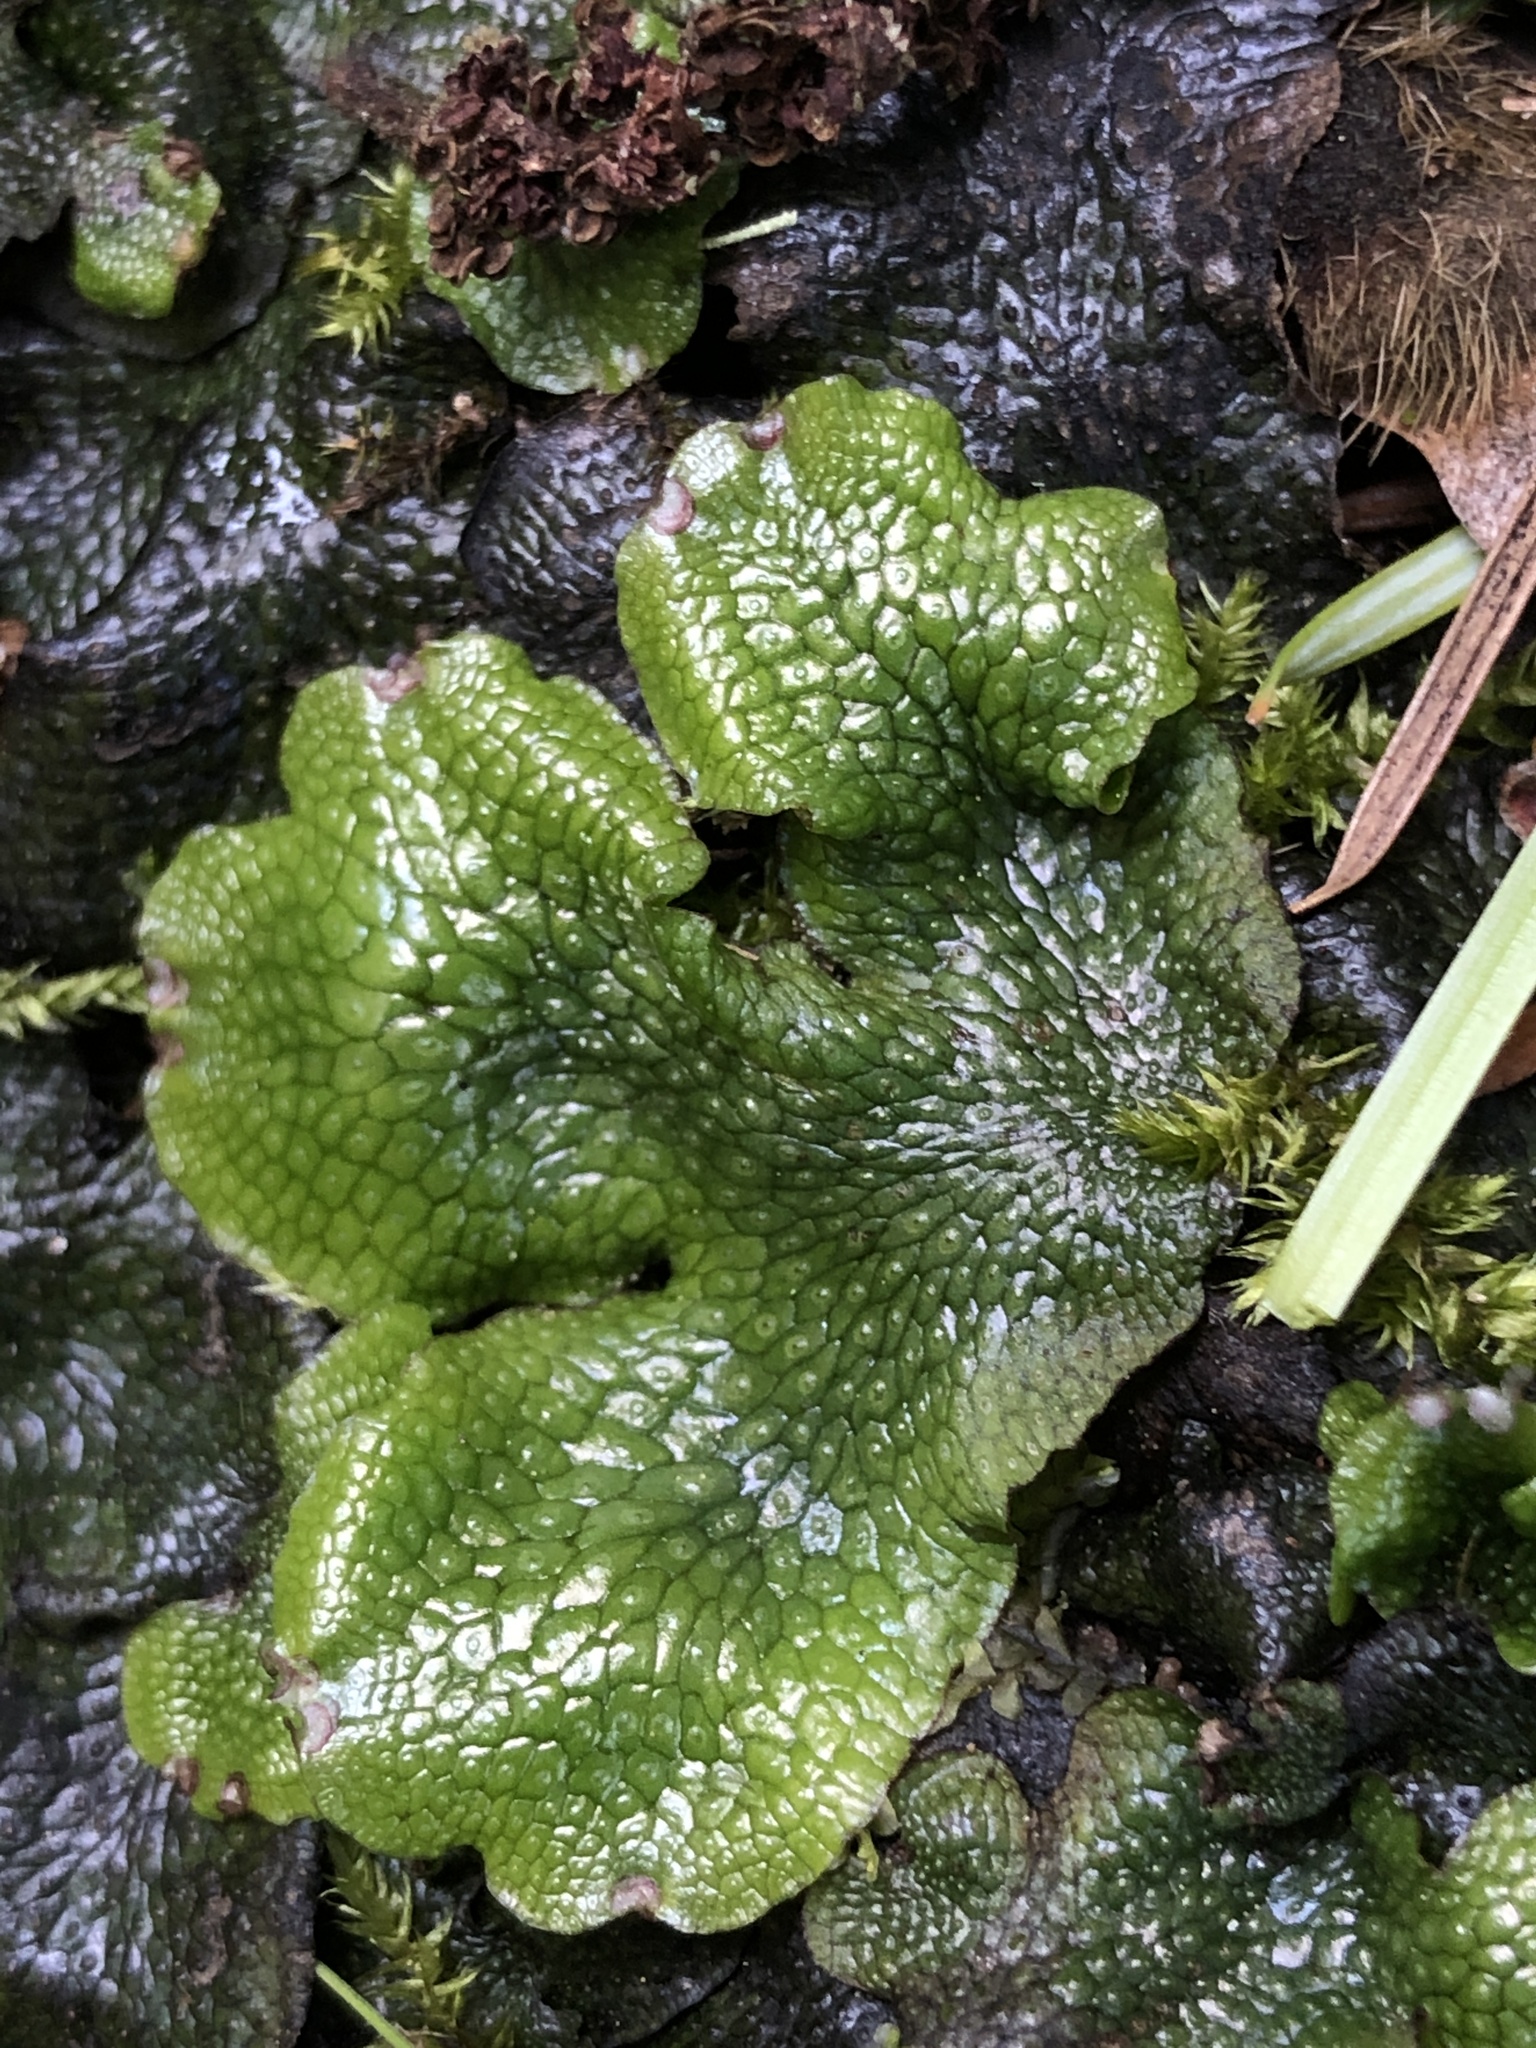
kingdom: Plantae
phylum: Marchantiophyta
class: Marchantiopsida
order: Marchantiales
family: Conocephalaceae
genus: Conocephalum
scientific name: Conocephalum salebrosum
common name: Cat-tongue liverwort
